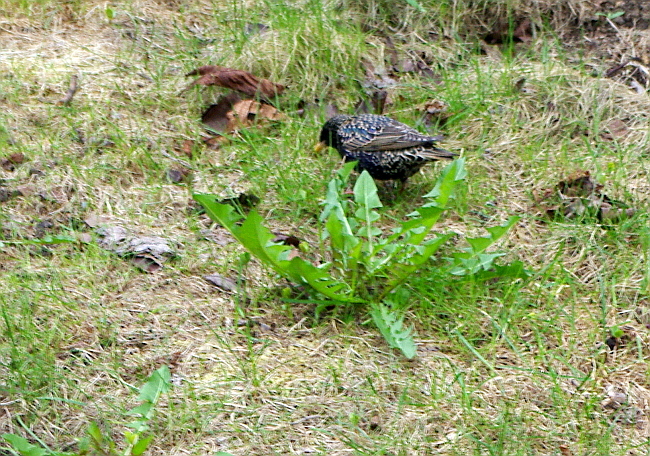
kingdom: Plantae
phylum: Tracheophyta
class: Magnoliopsida
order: Asterales
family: Asteraceae
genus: Taraxacum
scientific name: Taraxacum officinale
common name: Common dandelion
